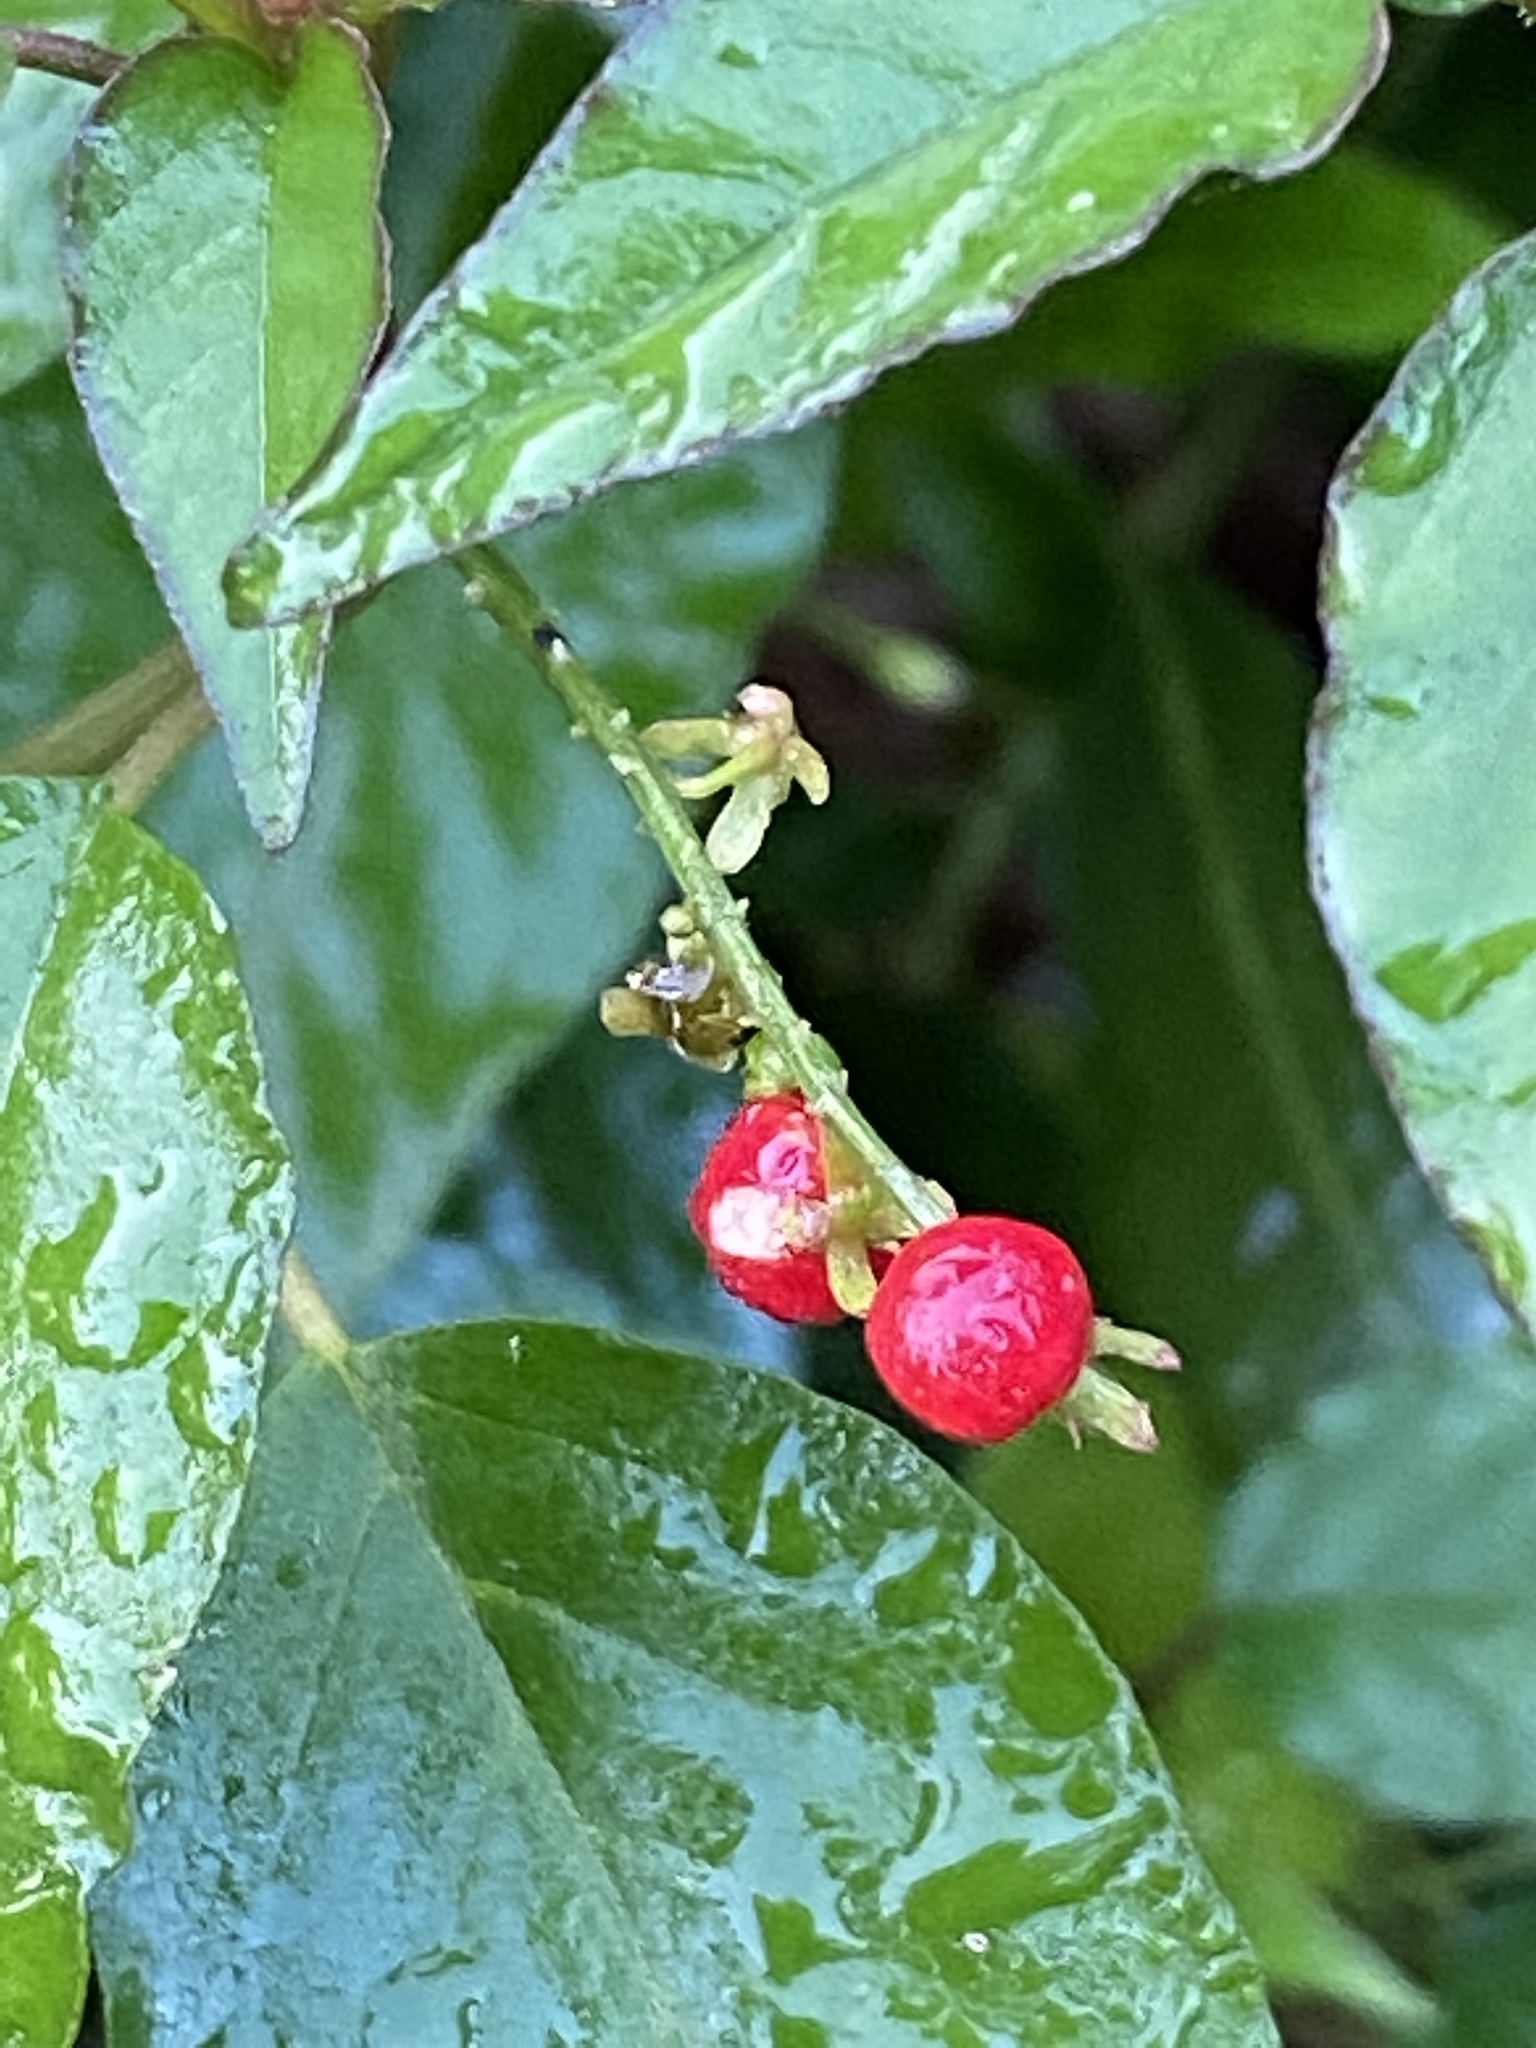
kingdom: Plantae
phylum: Tracheophyta
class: Magnoliopsida
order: Caryophyllales
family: Phytolaccaceae
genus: Rivina
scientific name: Rivina humilis
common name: Rougeplant
